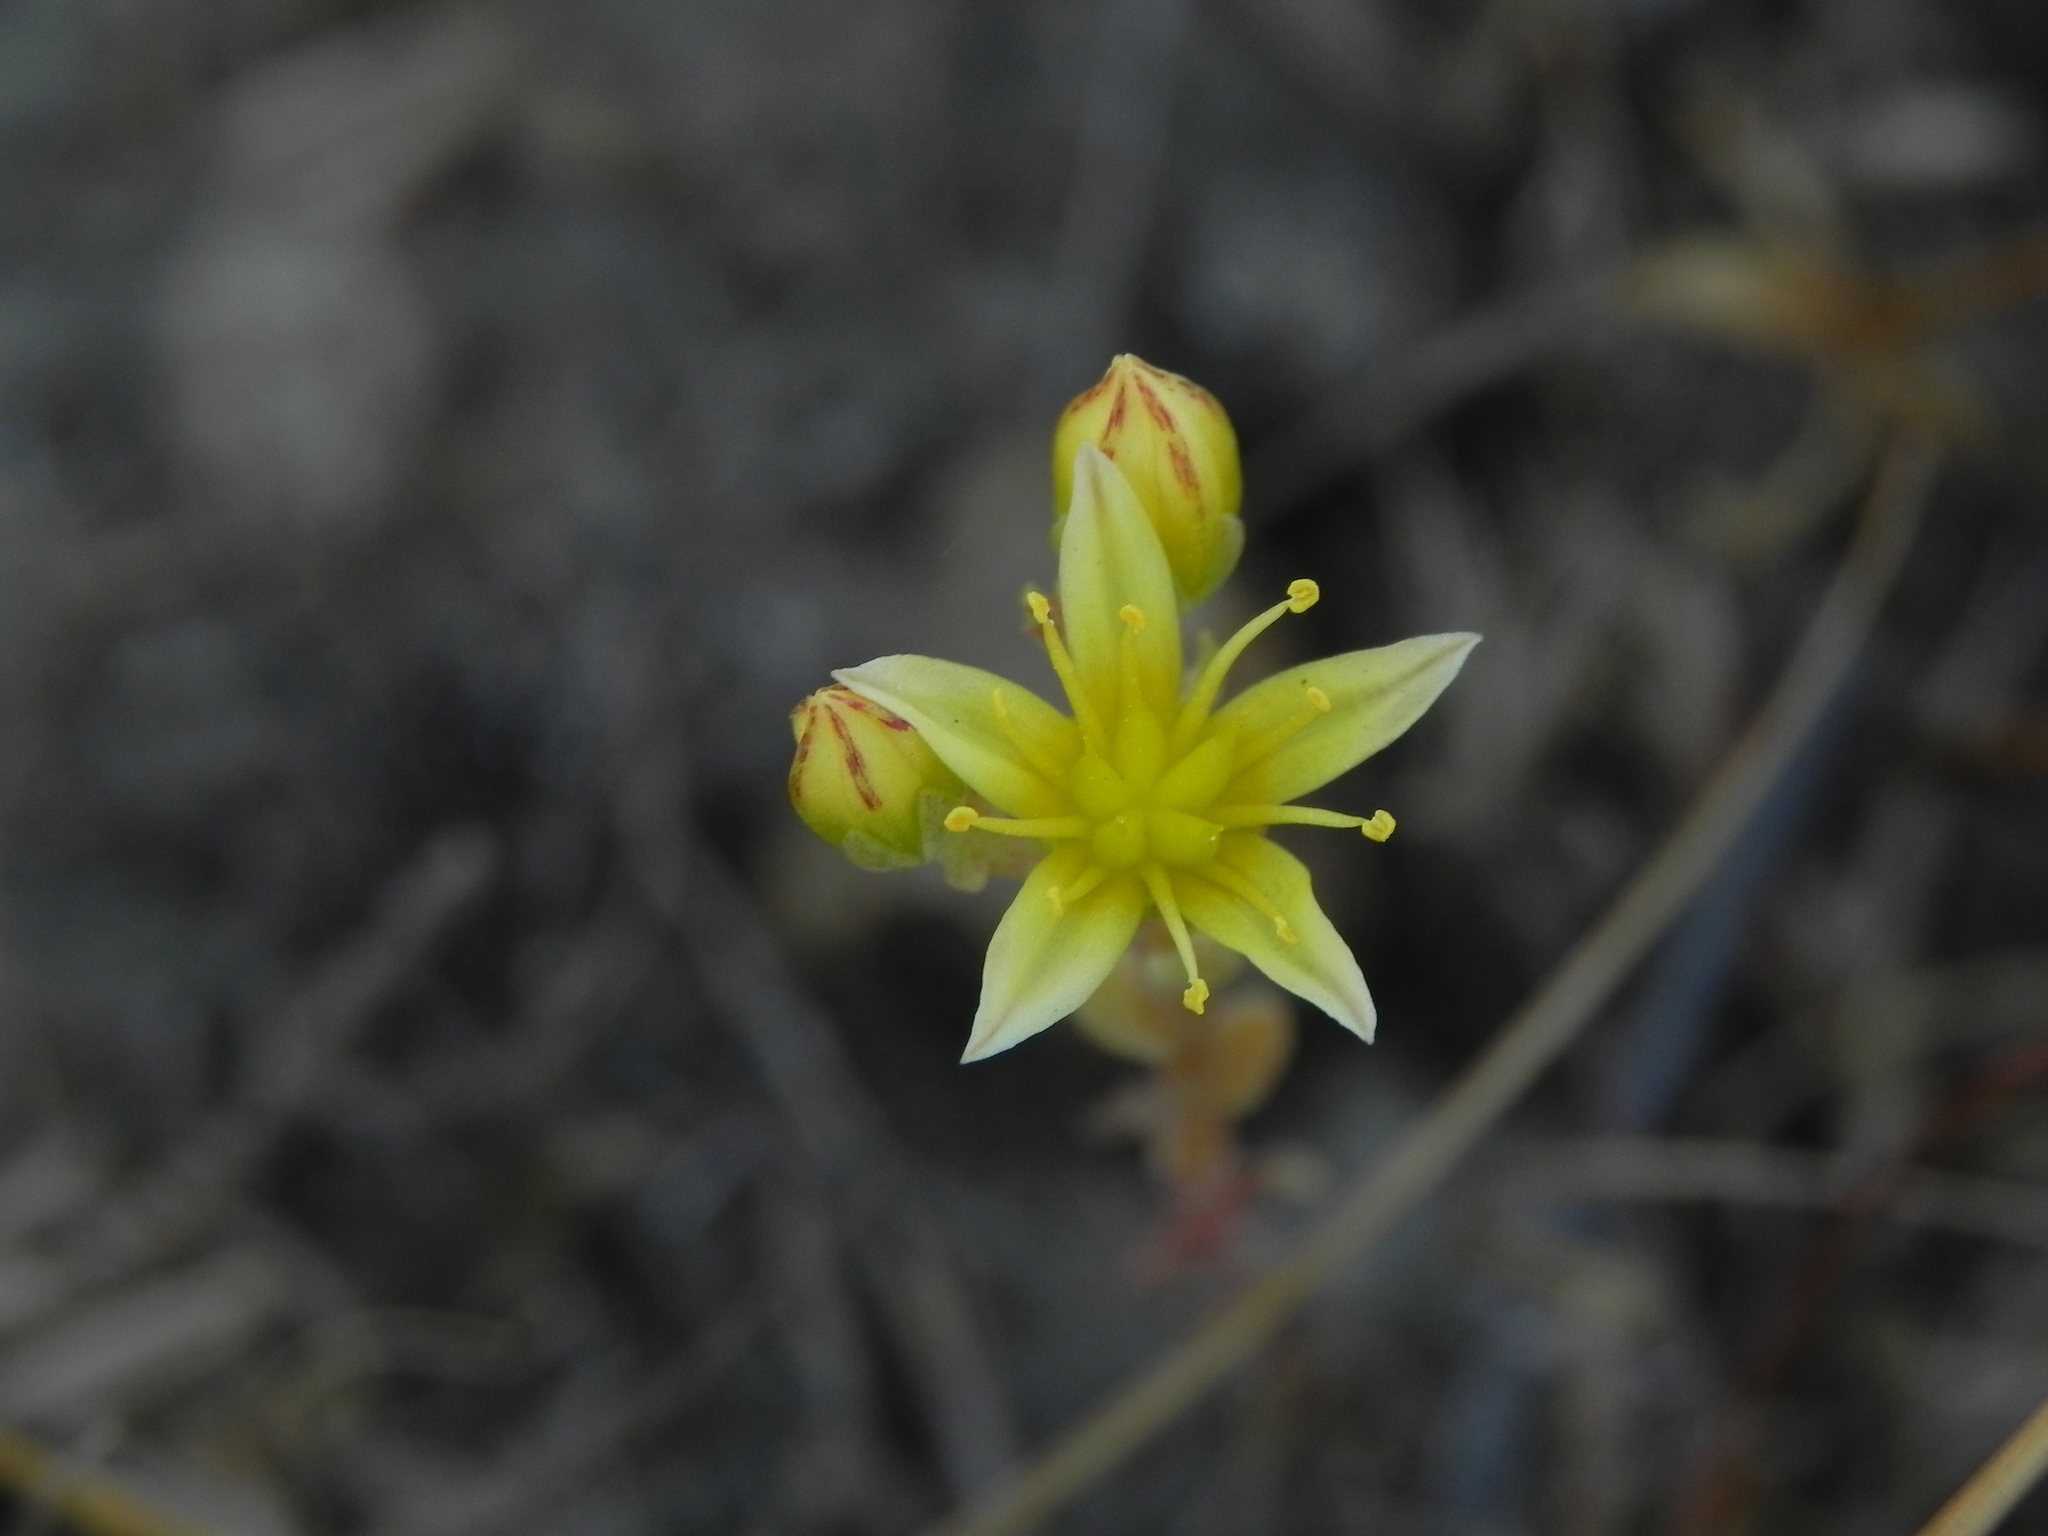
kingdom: Plantae
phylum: Tracheophyta
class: Magnoliopsida
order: Saxifragales
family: Crassulaceae
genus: Dudleya
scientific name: Dudleya variegata
